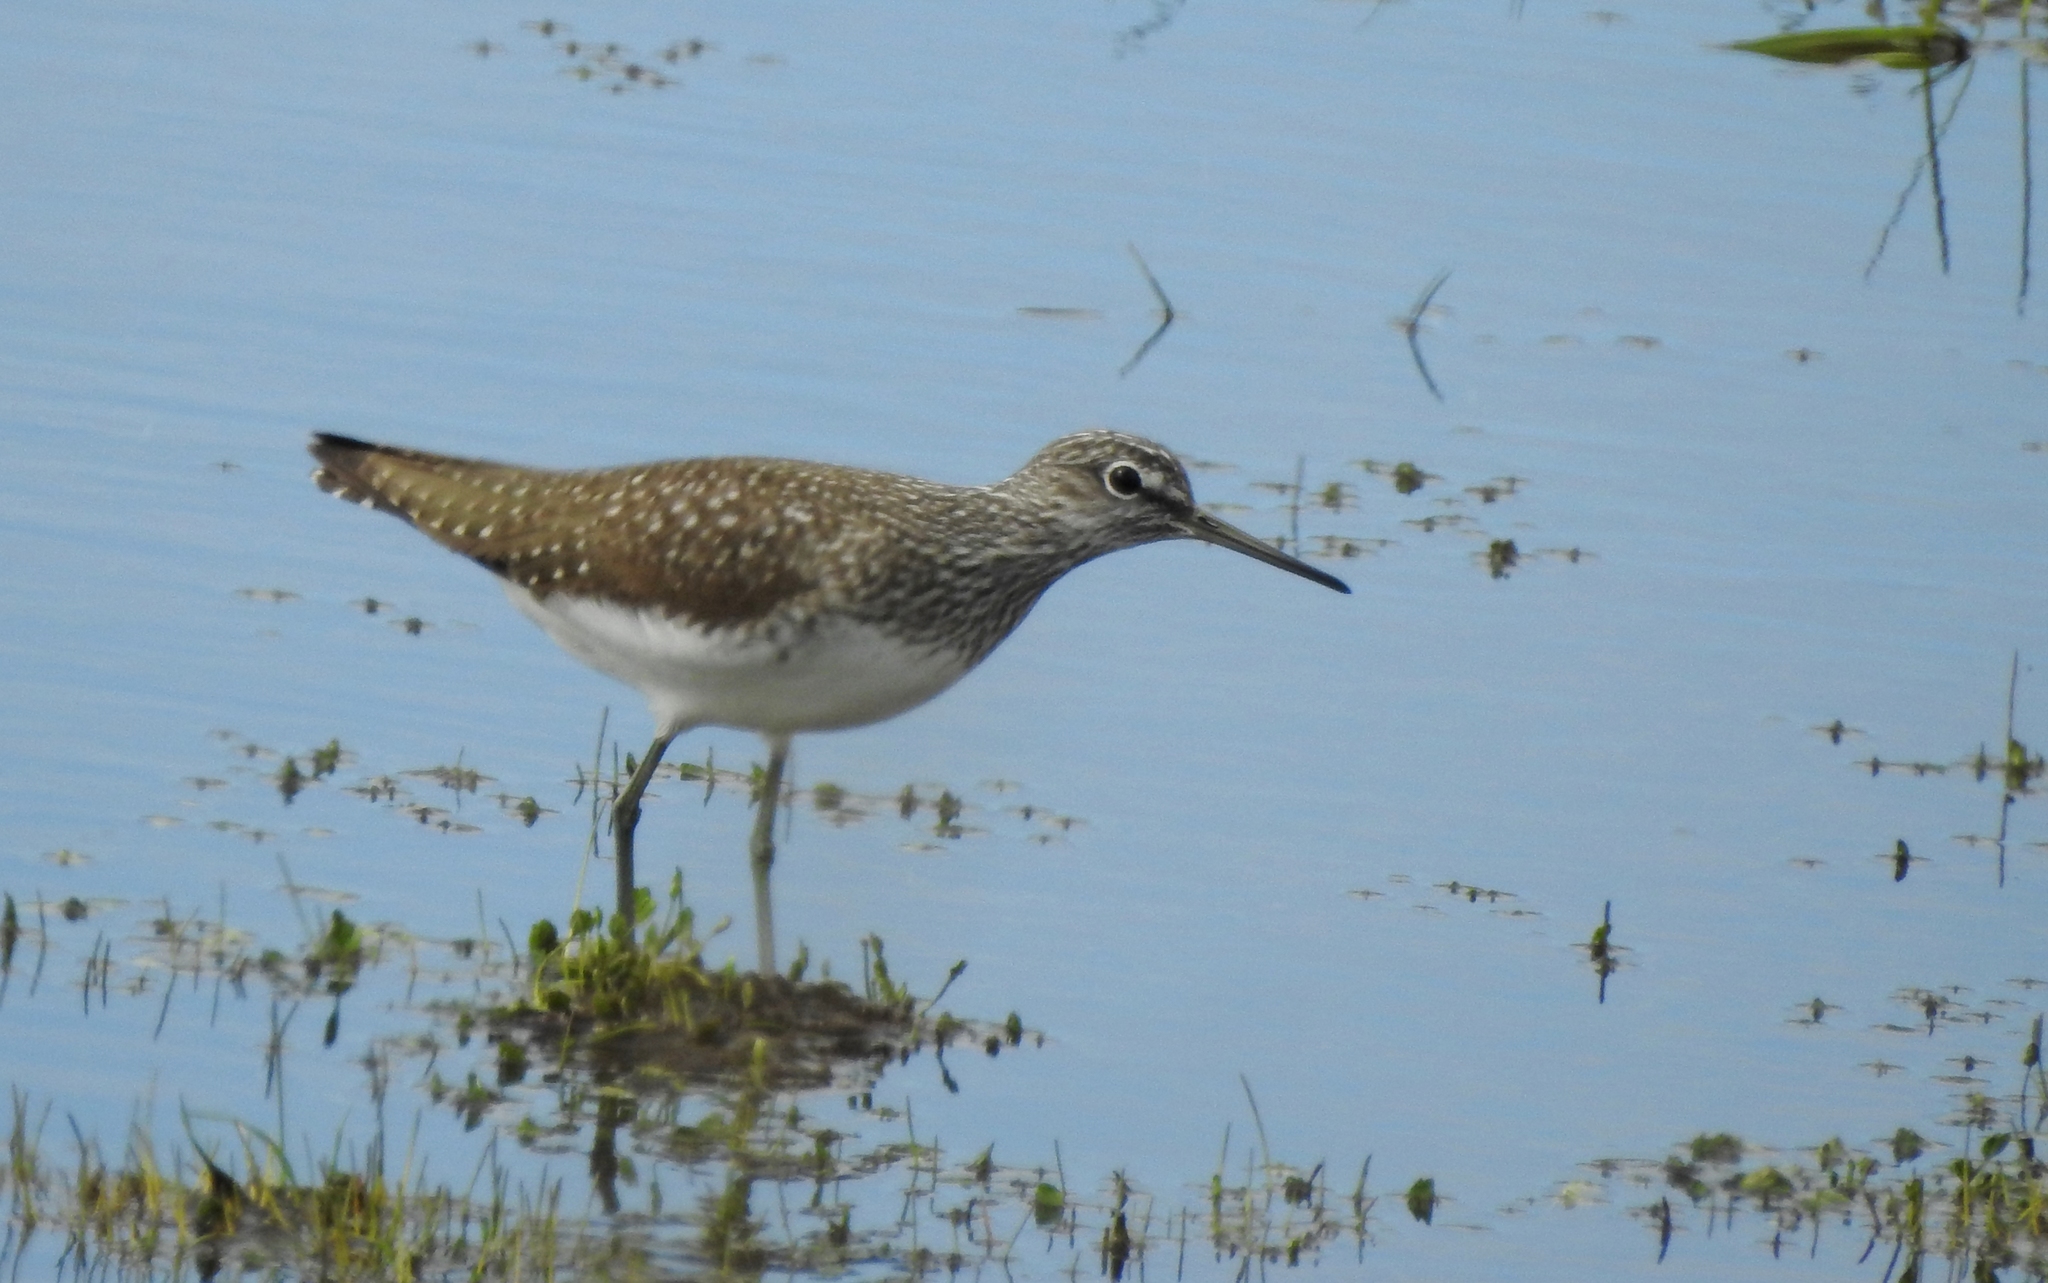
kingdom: Animalia
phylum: Chordata
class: Aves
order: Charadriiformes
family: Scolopacidae
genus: Tringa
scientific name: Tringa glareola
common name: Wood sandpiper
